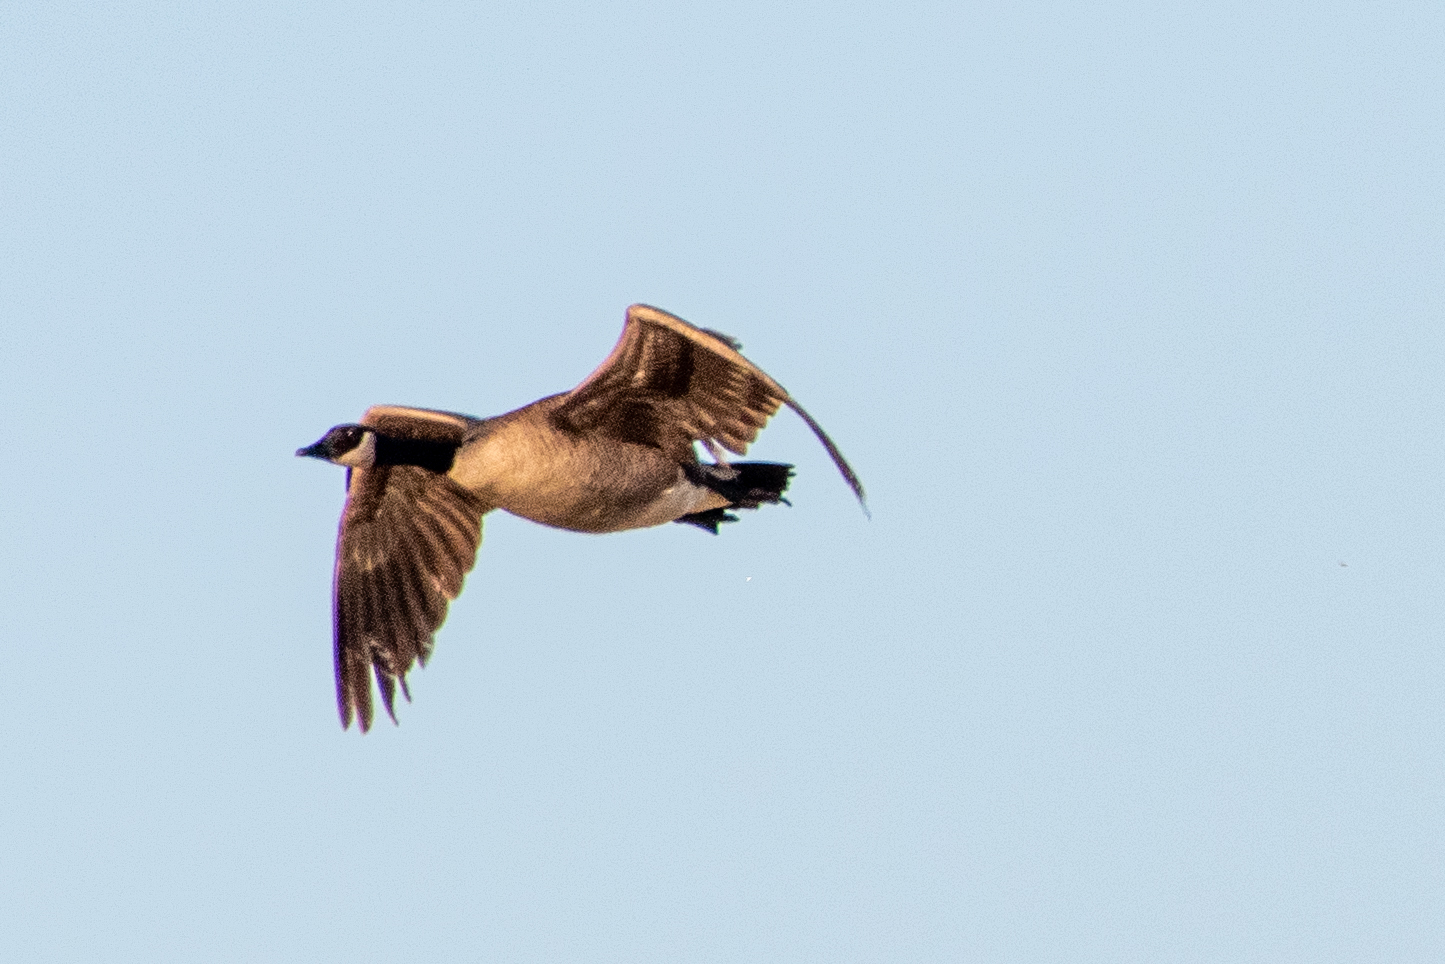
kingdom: Animalia
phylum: Chordata
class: Aves
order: Anseriformes
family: Anatidae
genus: Branta
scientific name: Branta canadensis
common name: Canada goose
